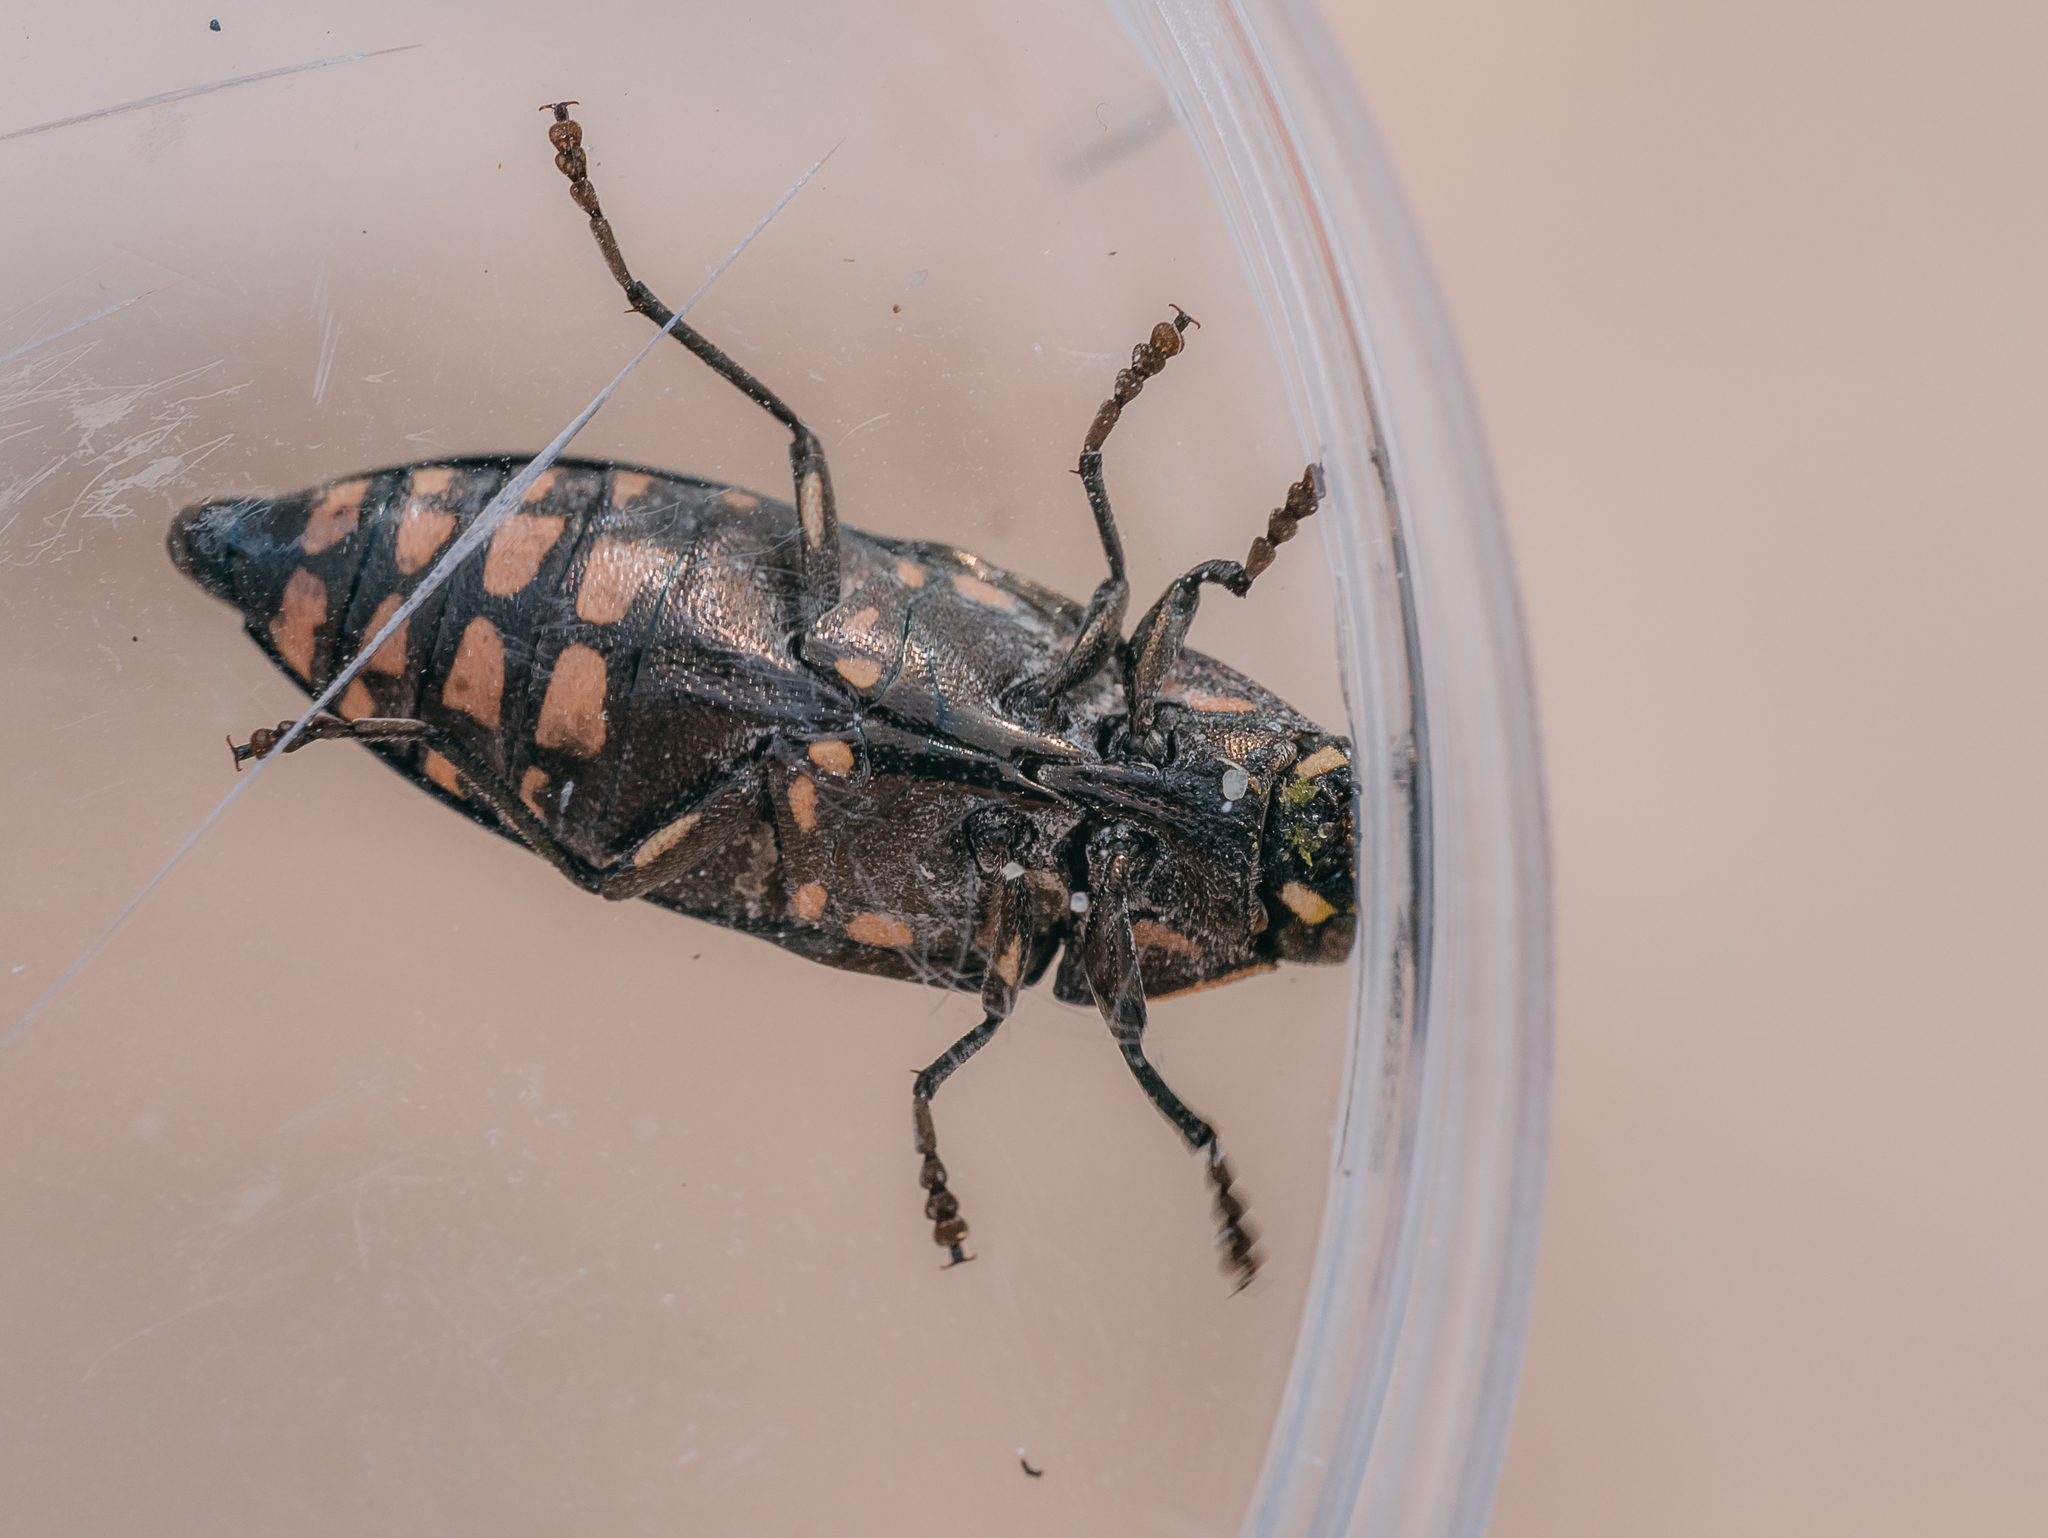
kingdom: Animalia
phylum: Arthropoda
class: Insecta
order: Coleoptera
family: Buprestidae
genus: Buprestis
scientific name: Buprestis novemmaculata
